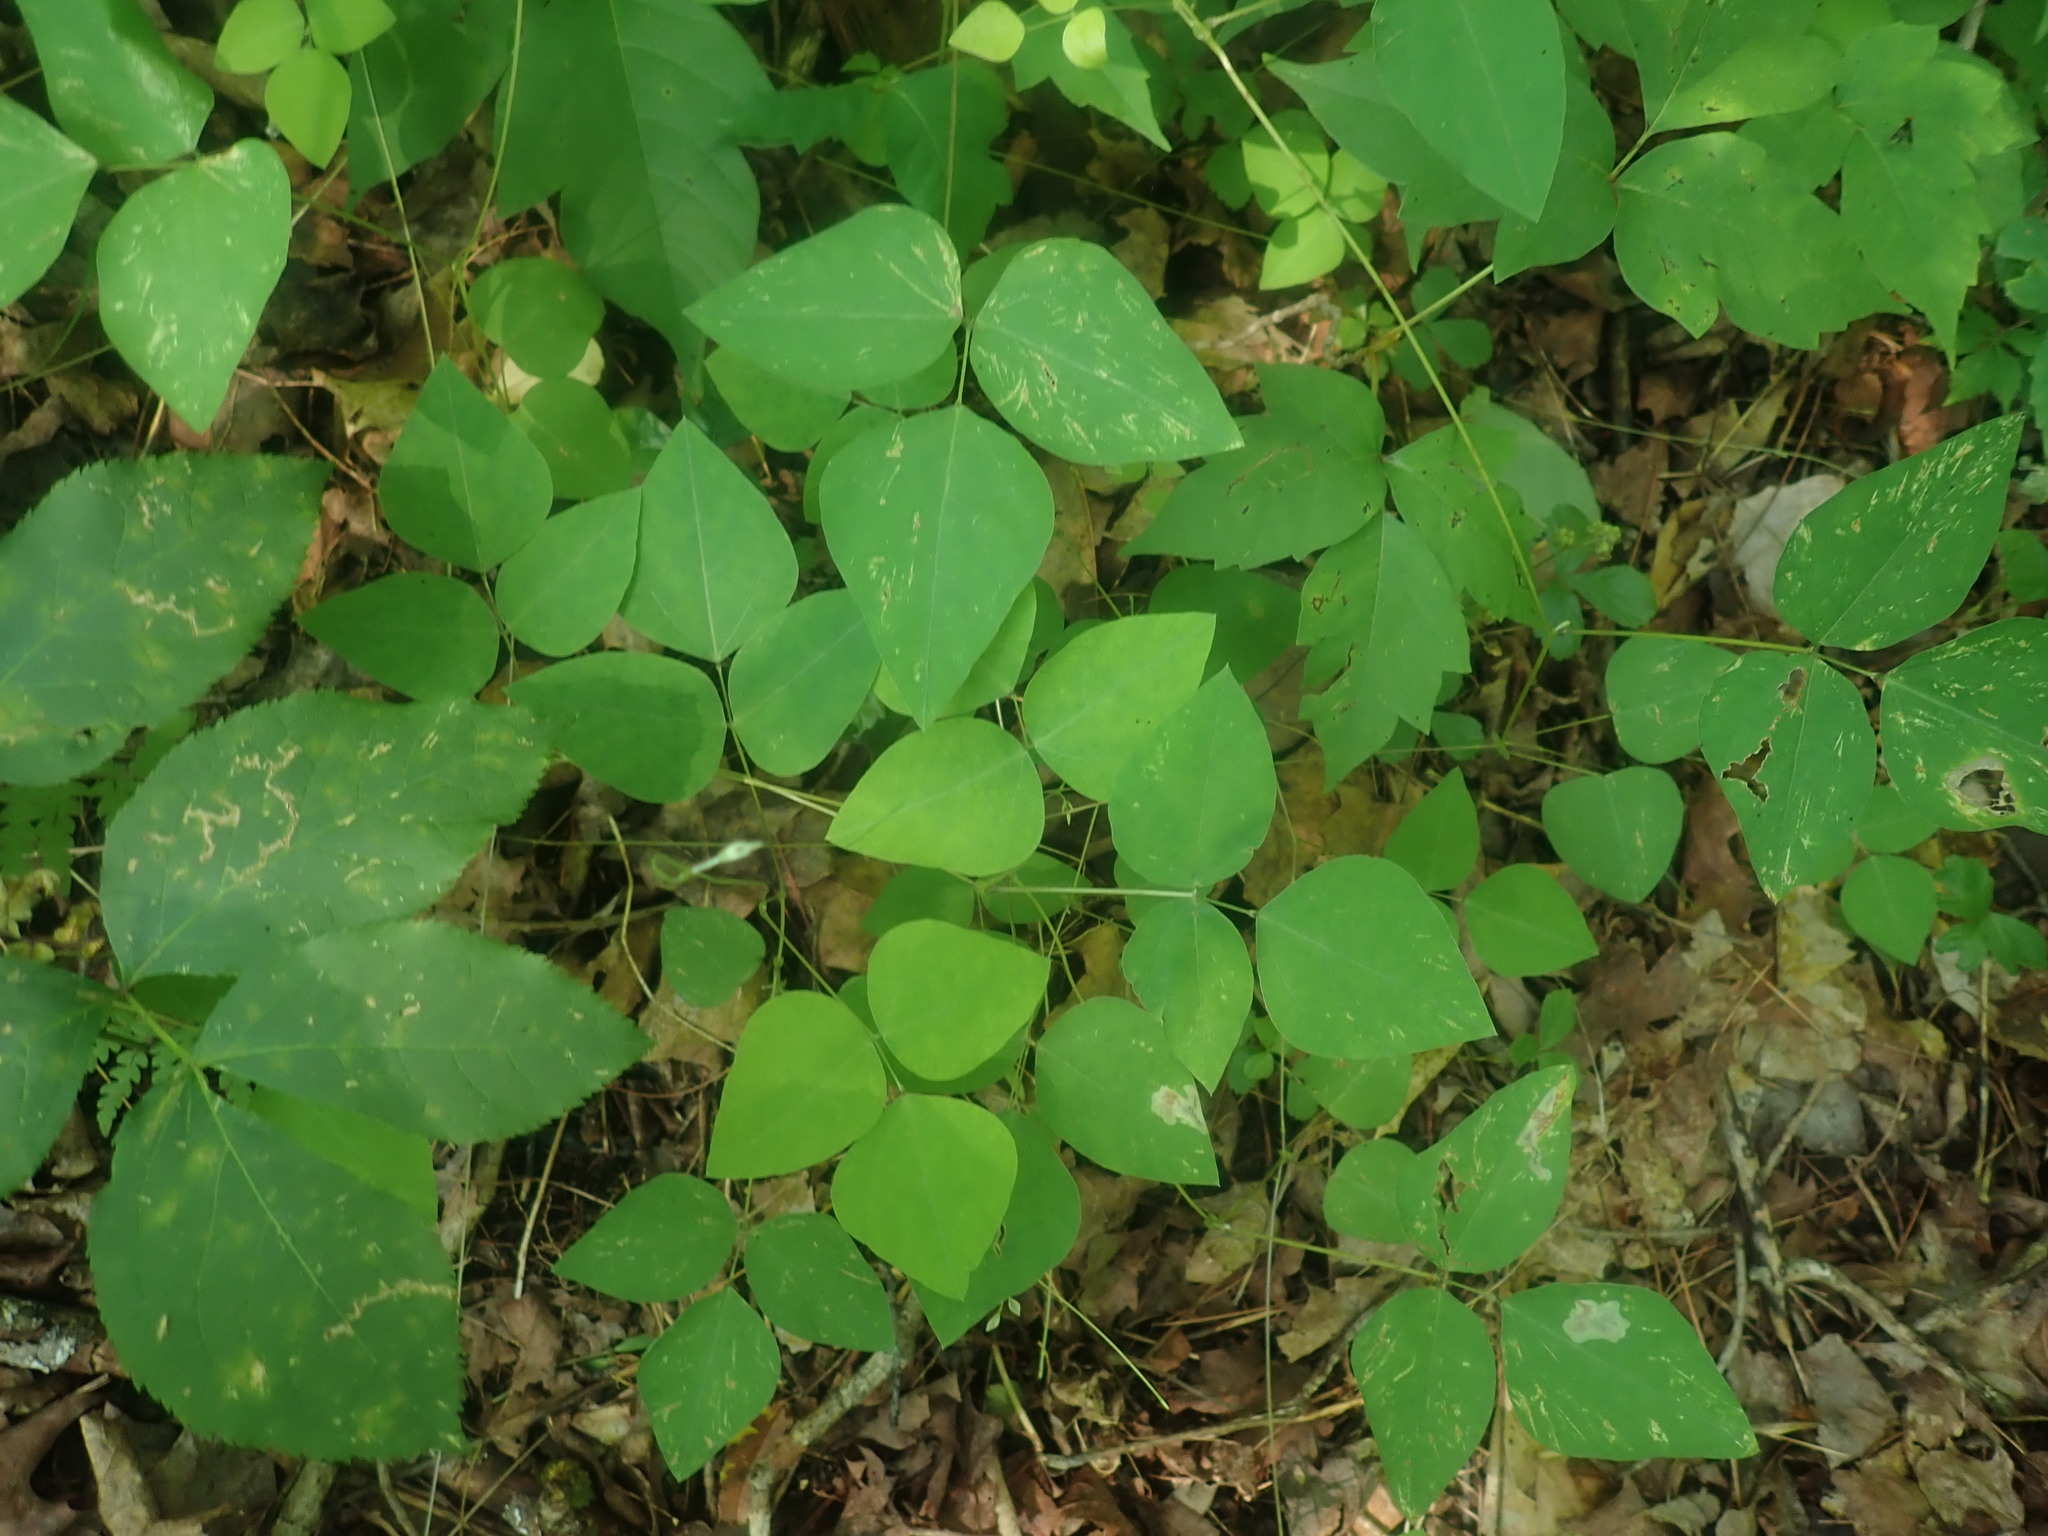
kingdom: Plantae
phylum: Tracheophyta
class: Magnoliopsida
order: Fabales
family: Fabaceae
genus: Amphicarpaea
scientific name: Amphicarpaea bracteata
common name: American hog peanut
